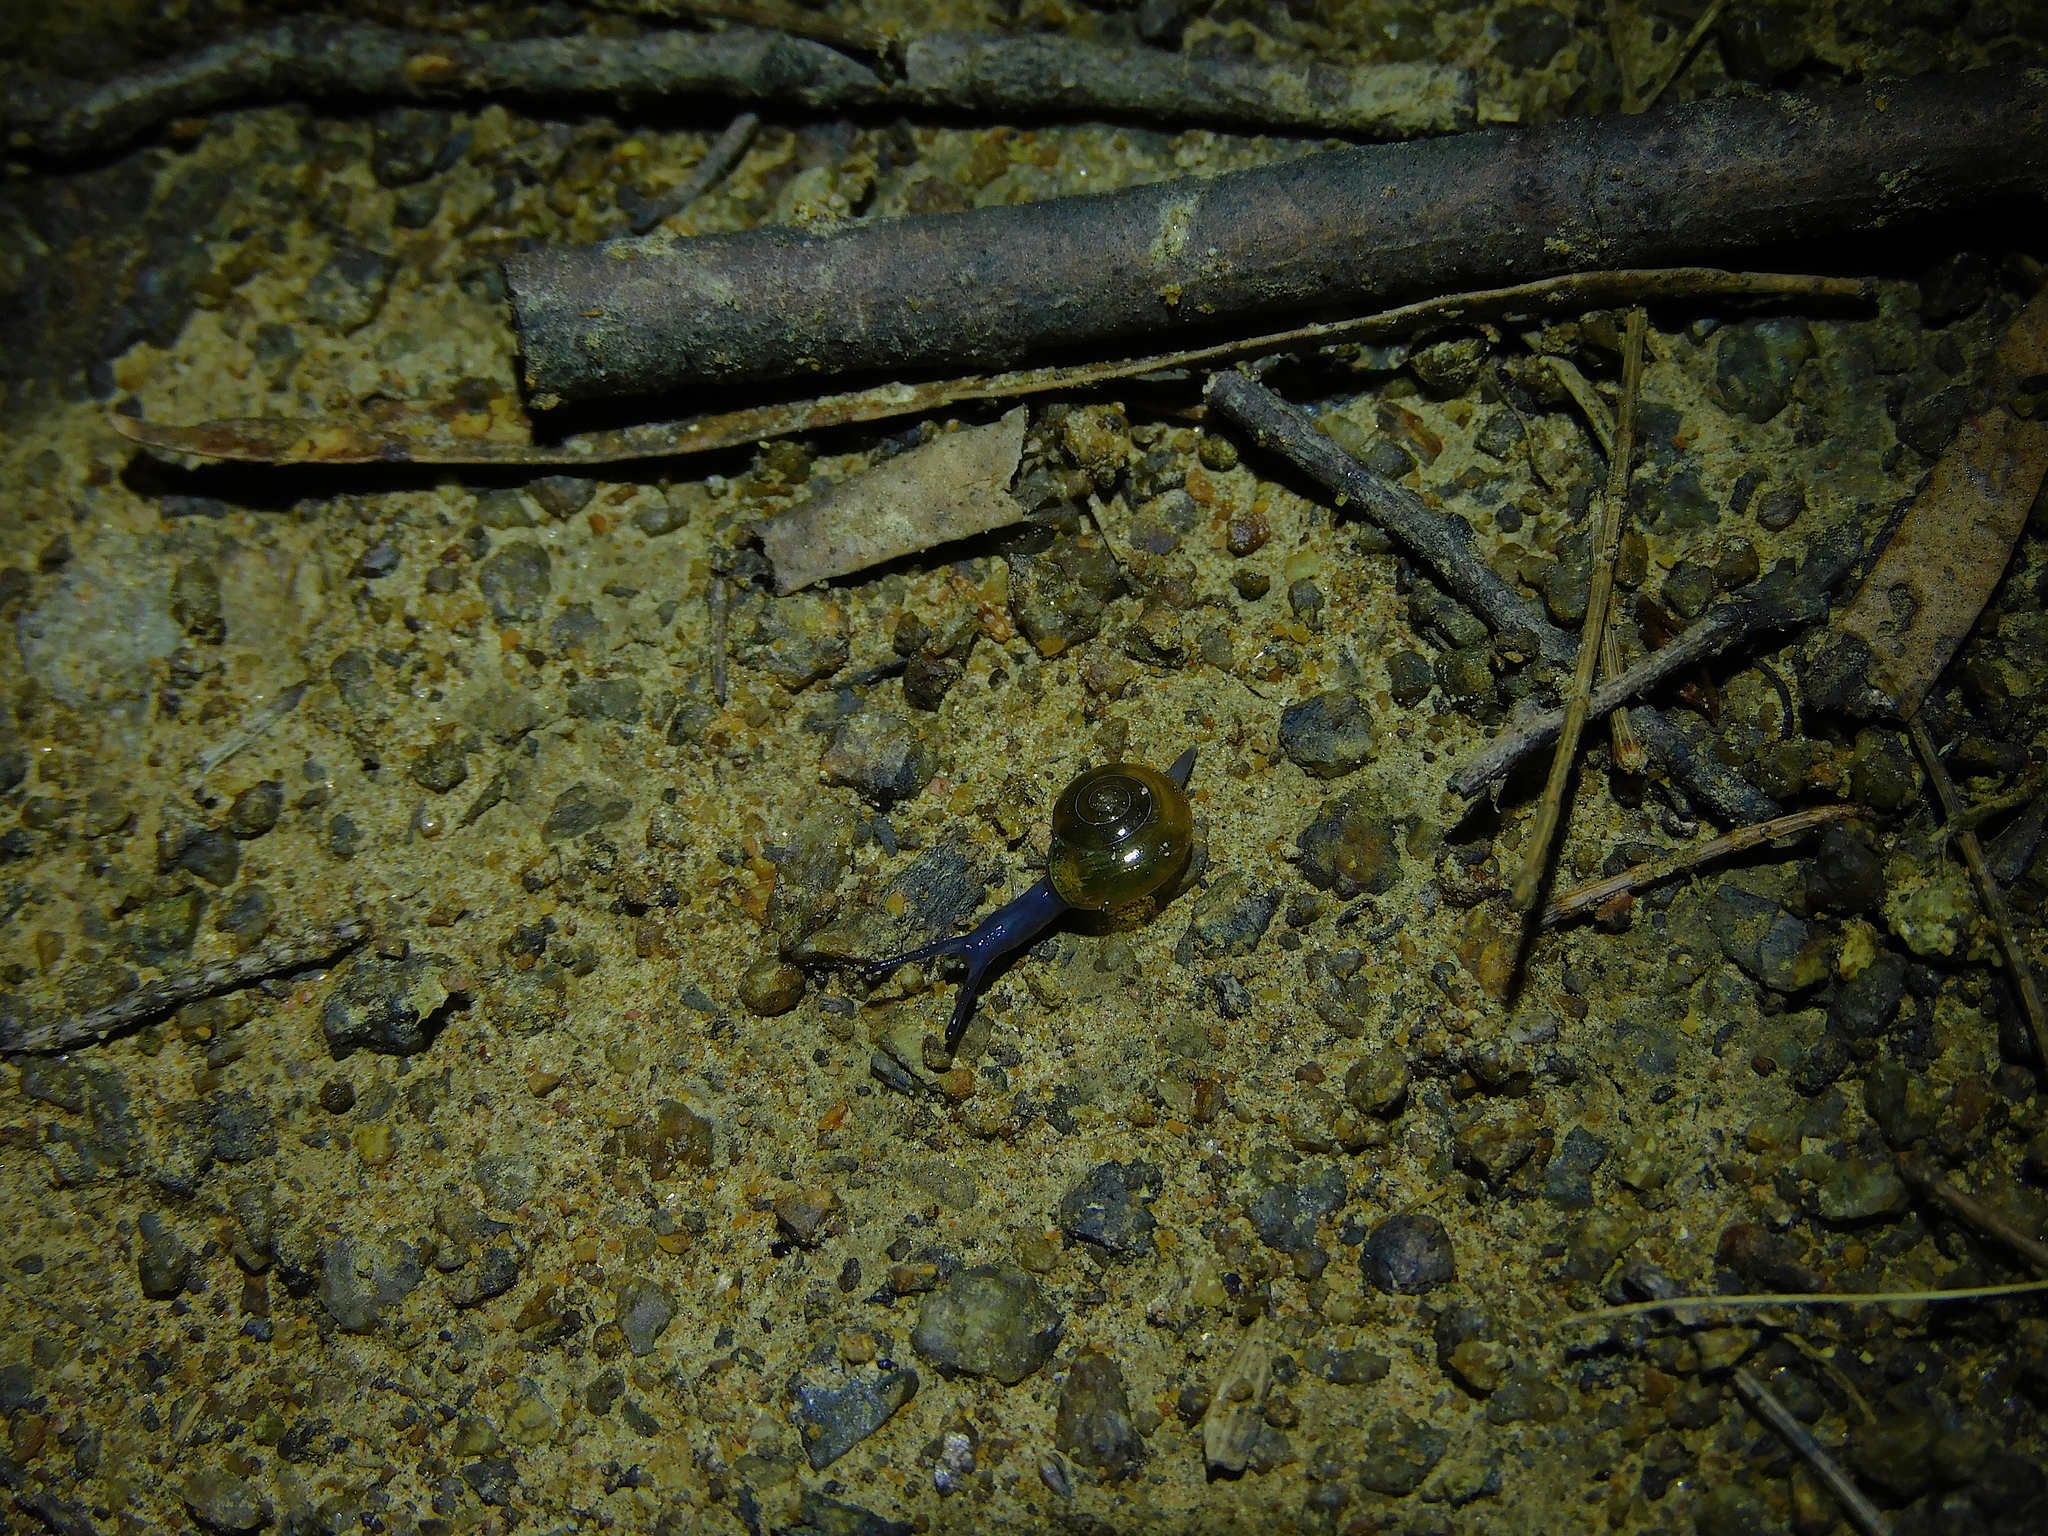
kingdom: Animalia
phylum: Mollusca
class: Gastropoda
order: Stylommatophora
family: Oxychilidae
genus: Oxychilus
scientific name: Oxychilus alliarius
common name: Garlic glass-snail
